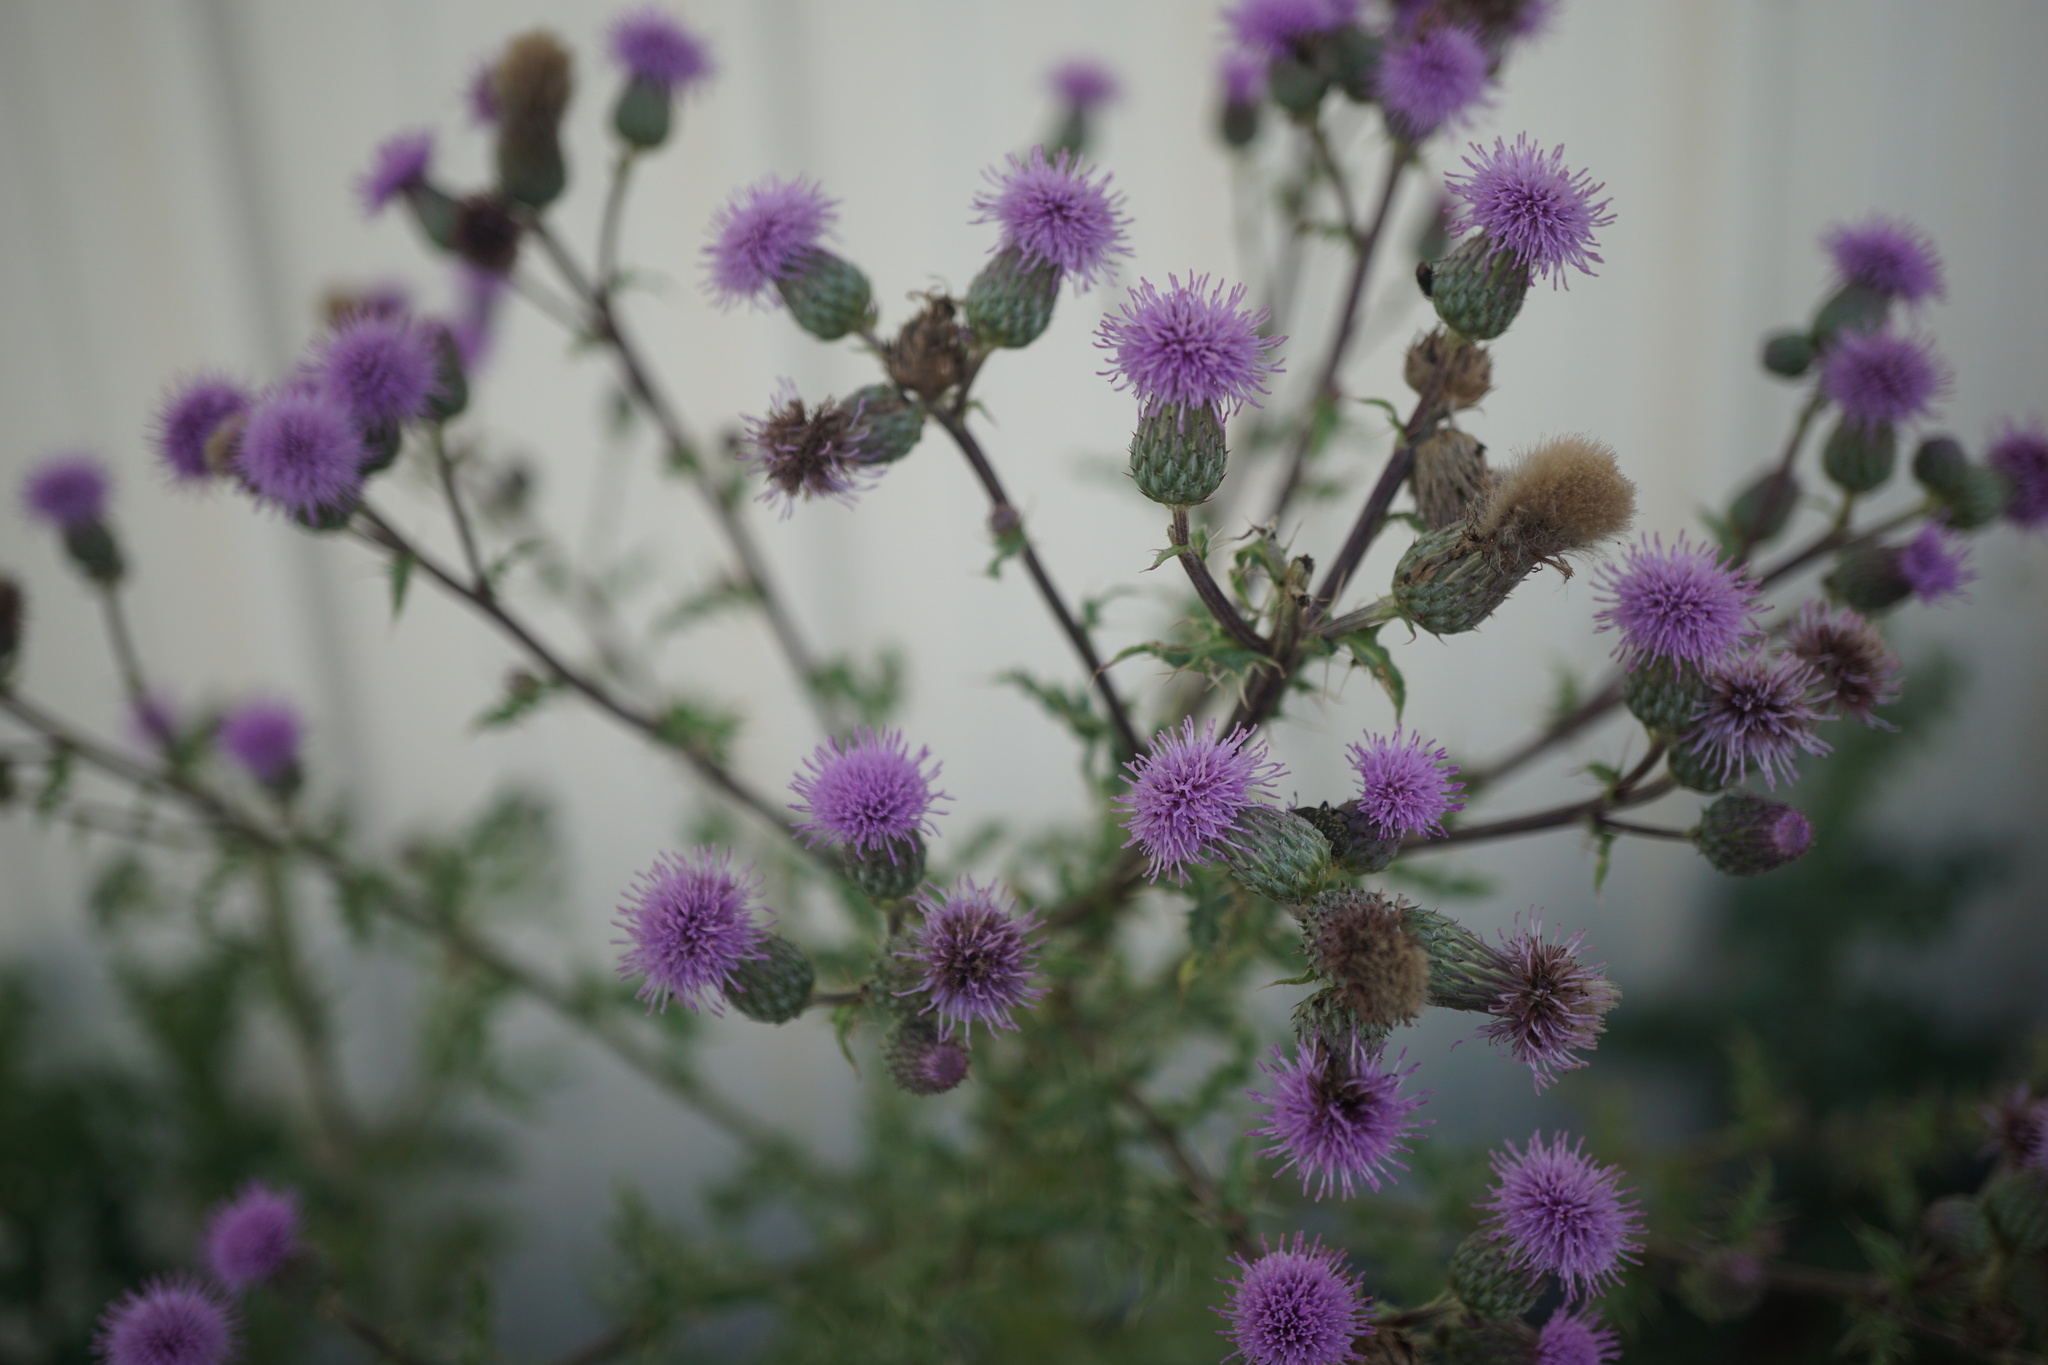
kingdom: Plantae
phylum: Tracheophyta
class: Magnoliopsida
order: Asterales
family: Asteraceae
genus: Cirsium
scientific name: Cirsium arvense
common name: Creeping thistle
